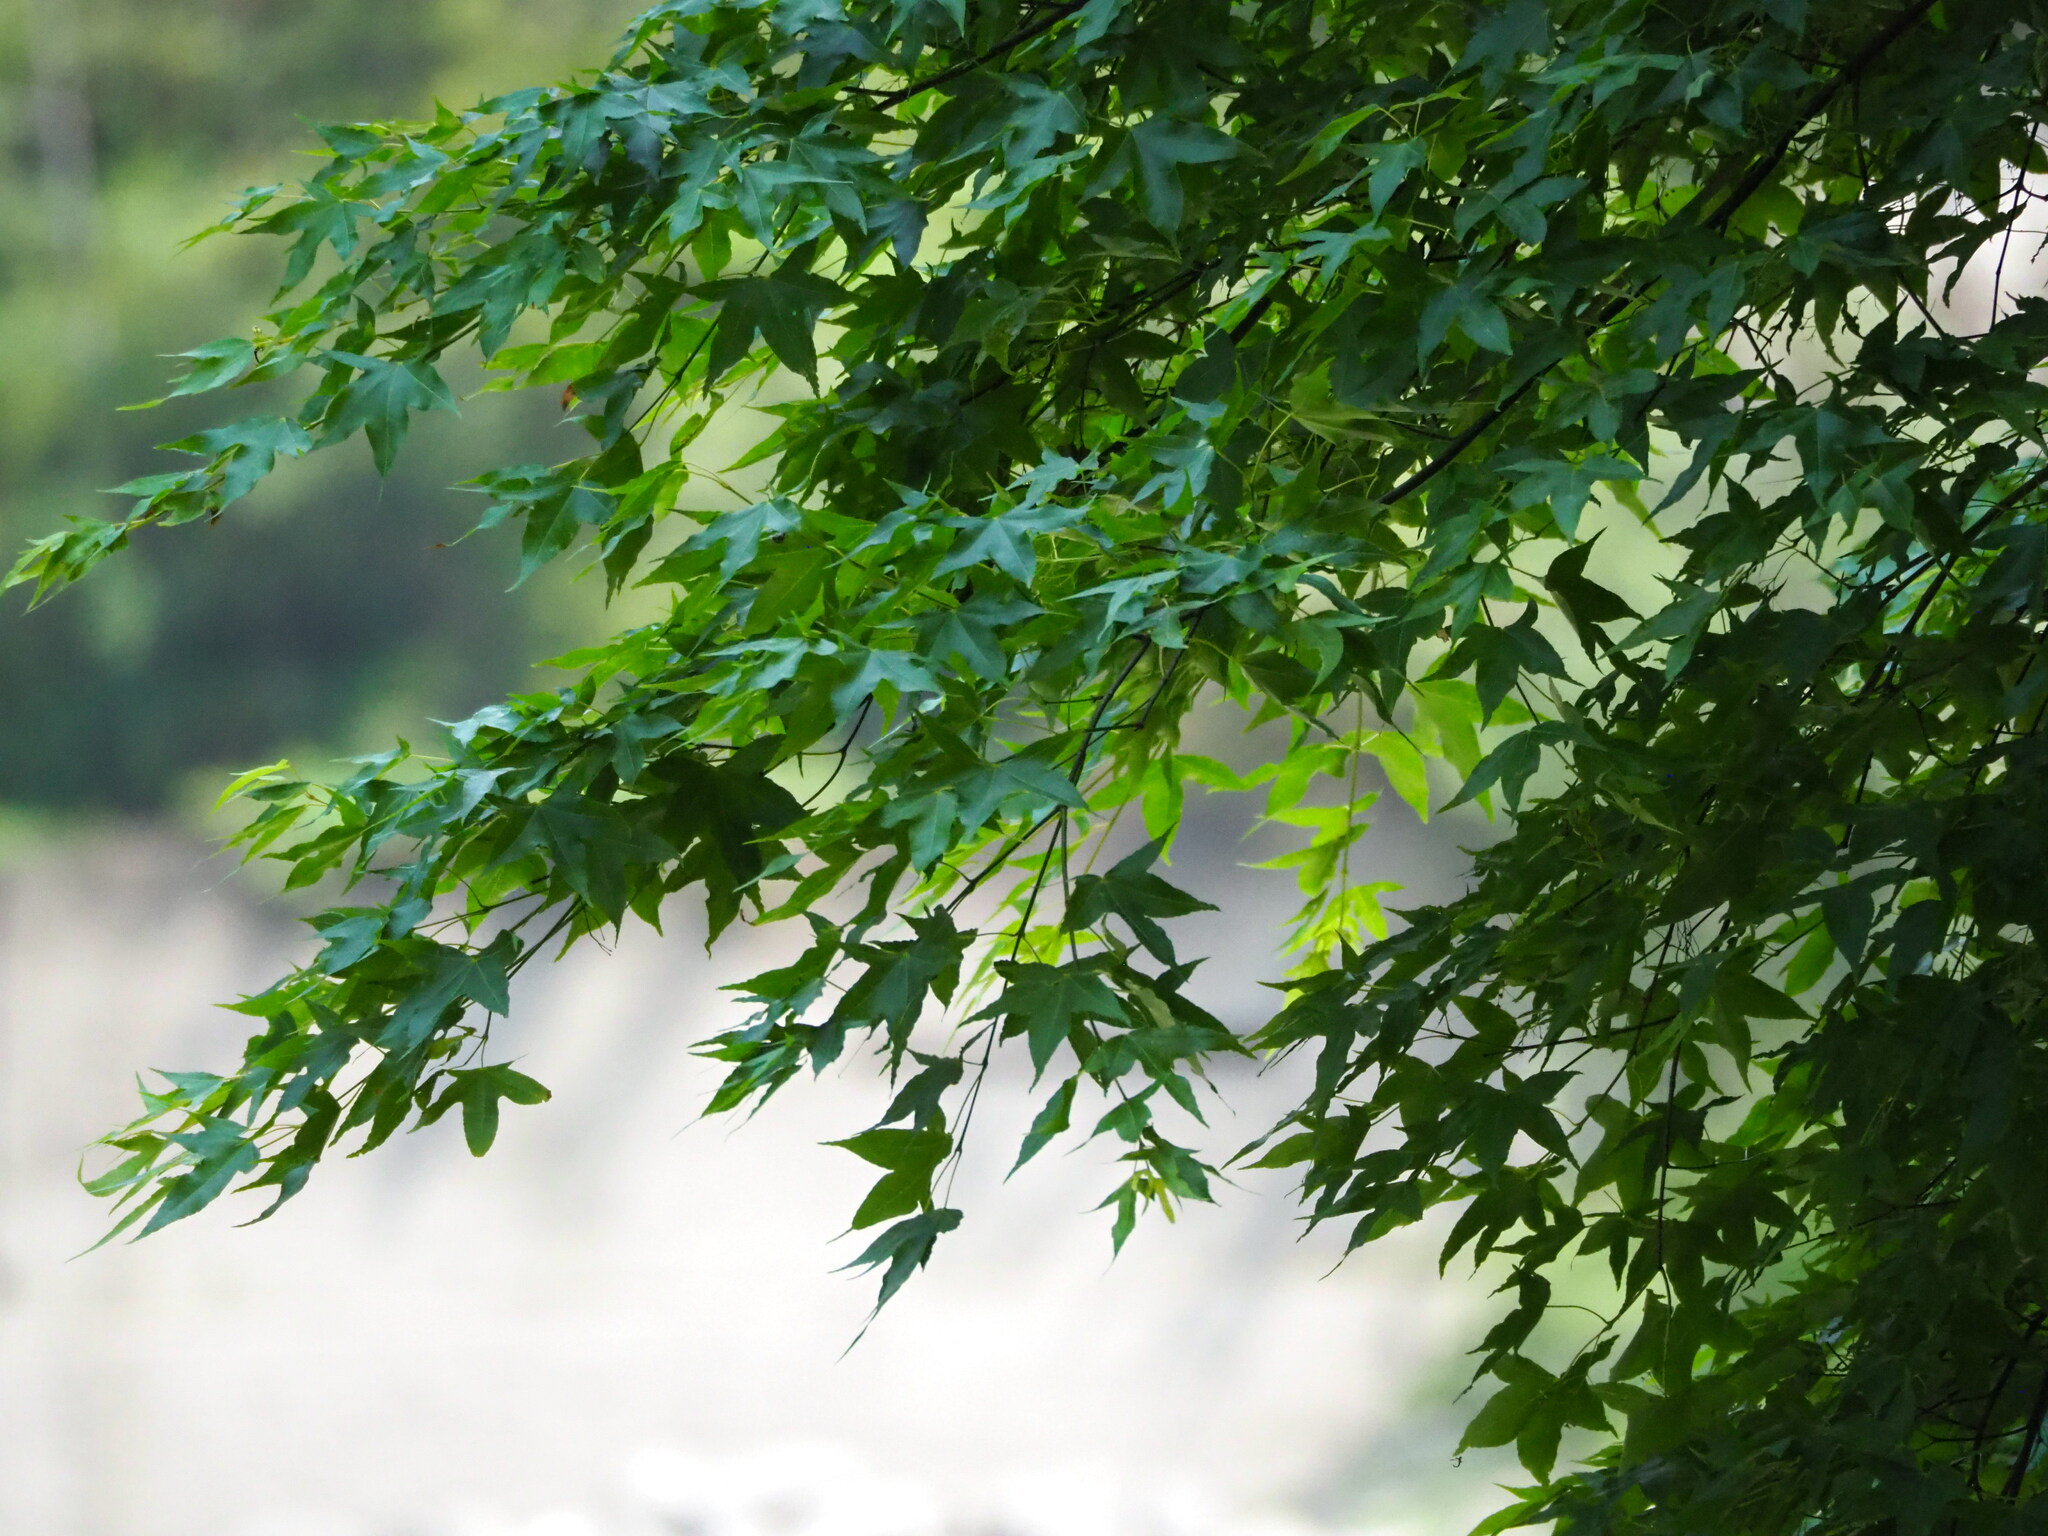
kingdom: Plantae
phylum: Tracheophyta
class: Magnoliopsida
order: Sapindales
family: Sapindaceae
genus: Acer
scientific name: Acer serrulatum
